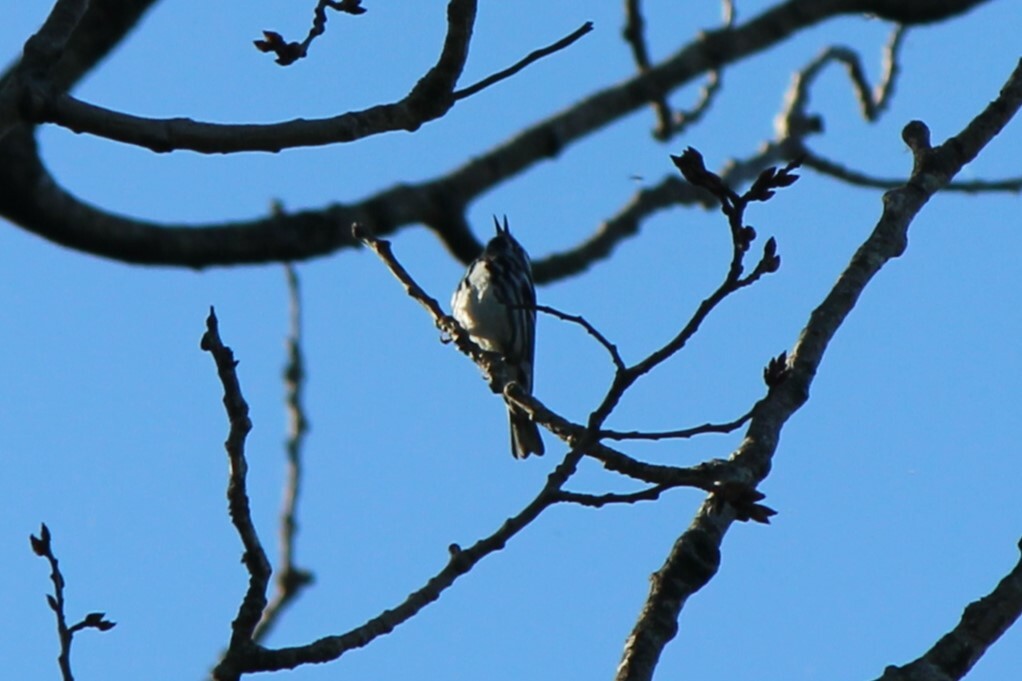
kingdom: Animalia
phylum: Chordata
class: Aves
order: Passeriformes
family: Parulidae
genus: Mniotilta
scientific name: Mniotilta varia
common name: Black-and-white warbler
